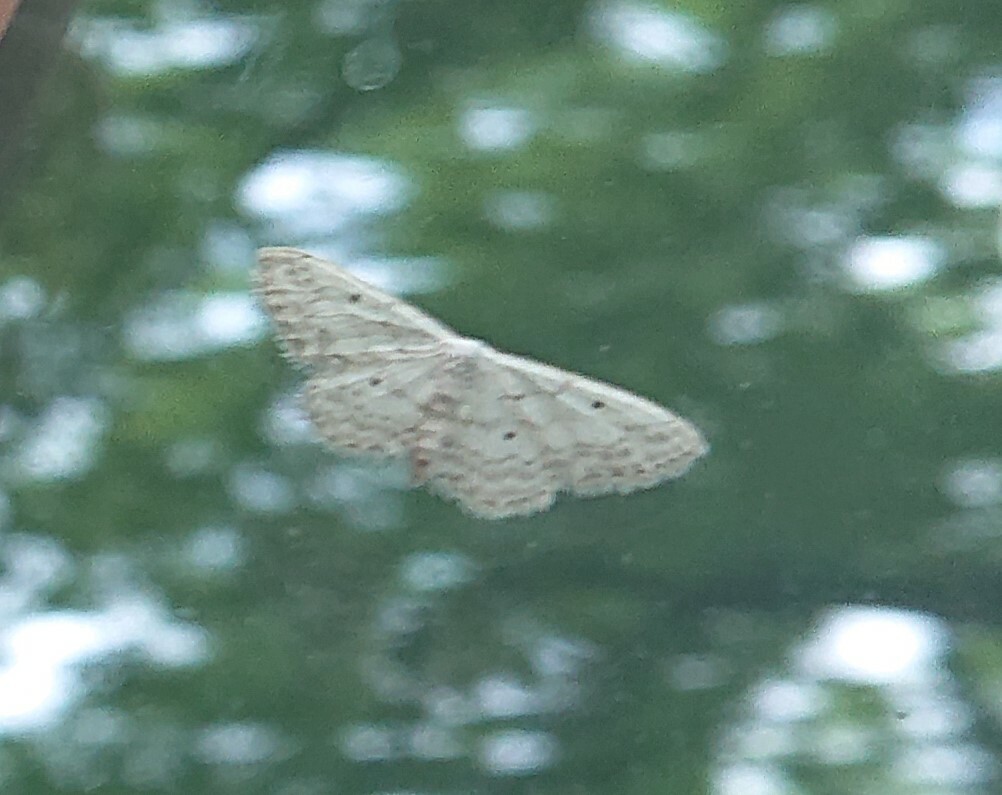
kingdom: Animalia
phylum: Arthropoda
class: Insecta
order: Lepidoptera
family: Geometridae
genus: Idaea
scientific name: Idaea seriata
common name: Small dusty wave
